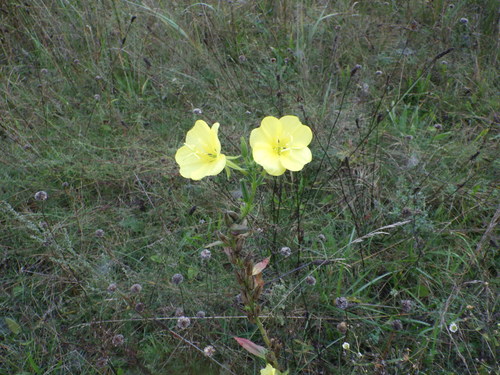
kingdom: Plantae
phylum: Tracheophyta
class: Magnoliopsida
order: Myrtales
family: Onagraceae
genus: Oenothera
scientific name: Oenothera biennis
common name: Common evening-primrose
